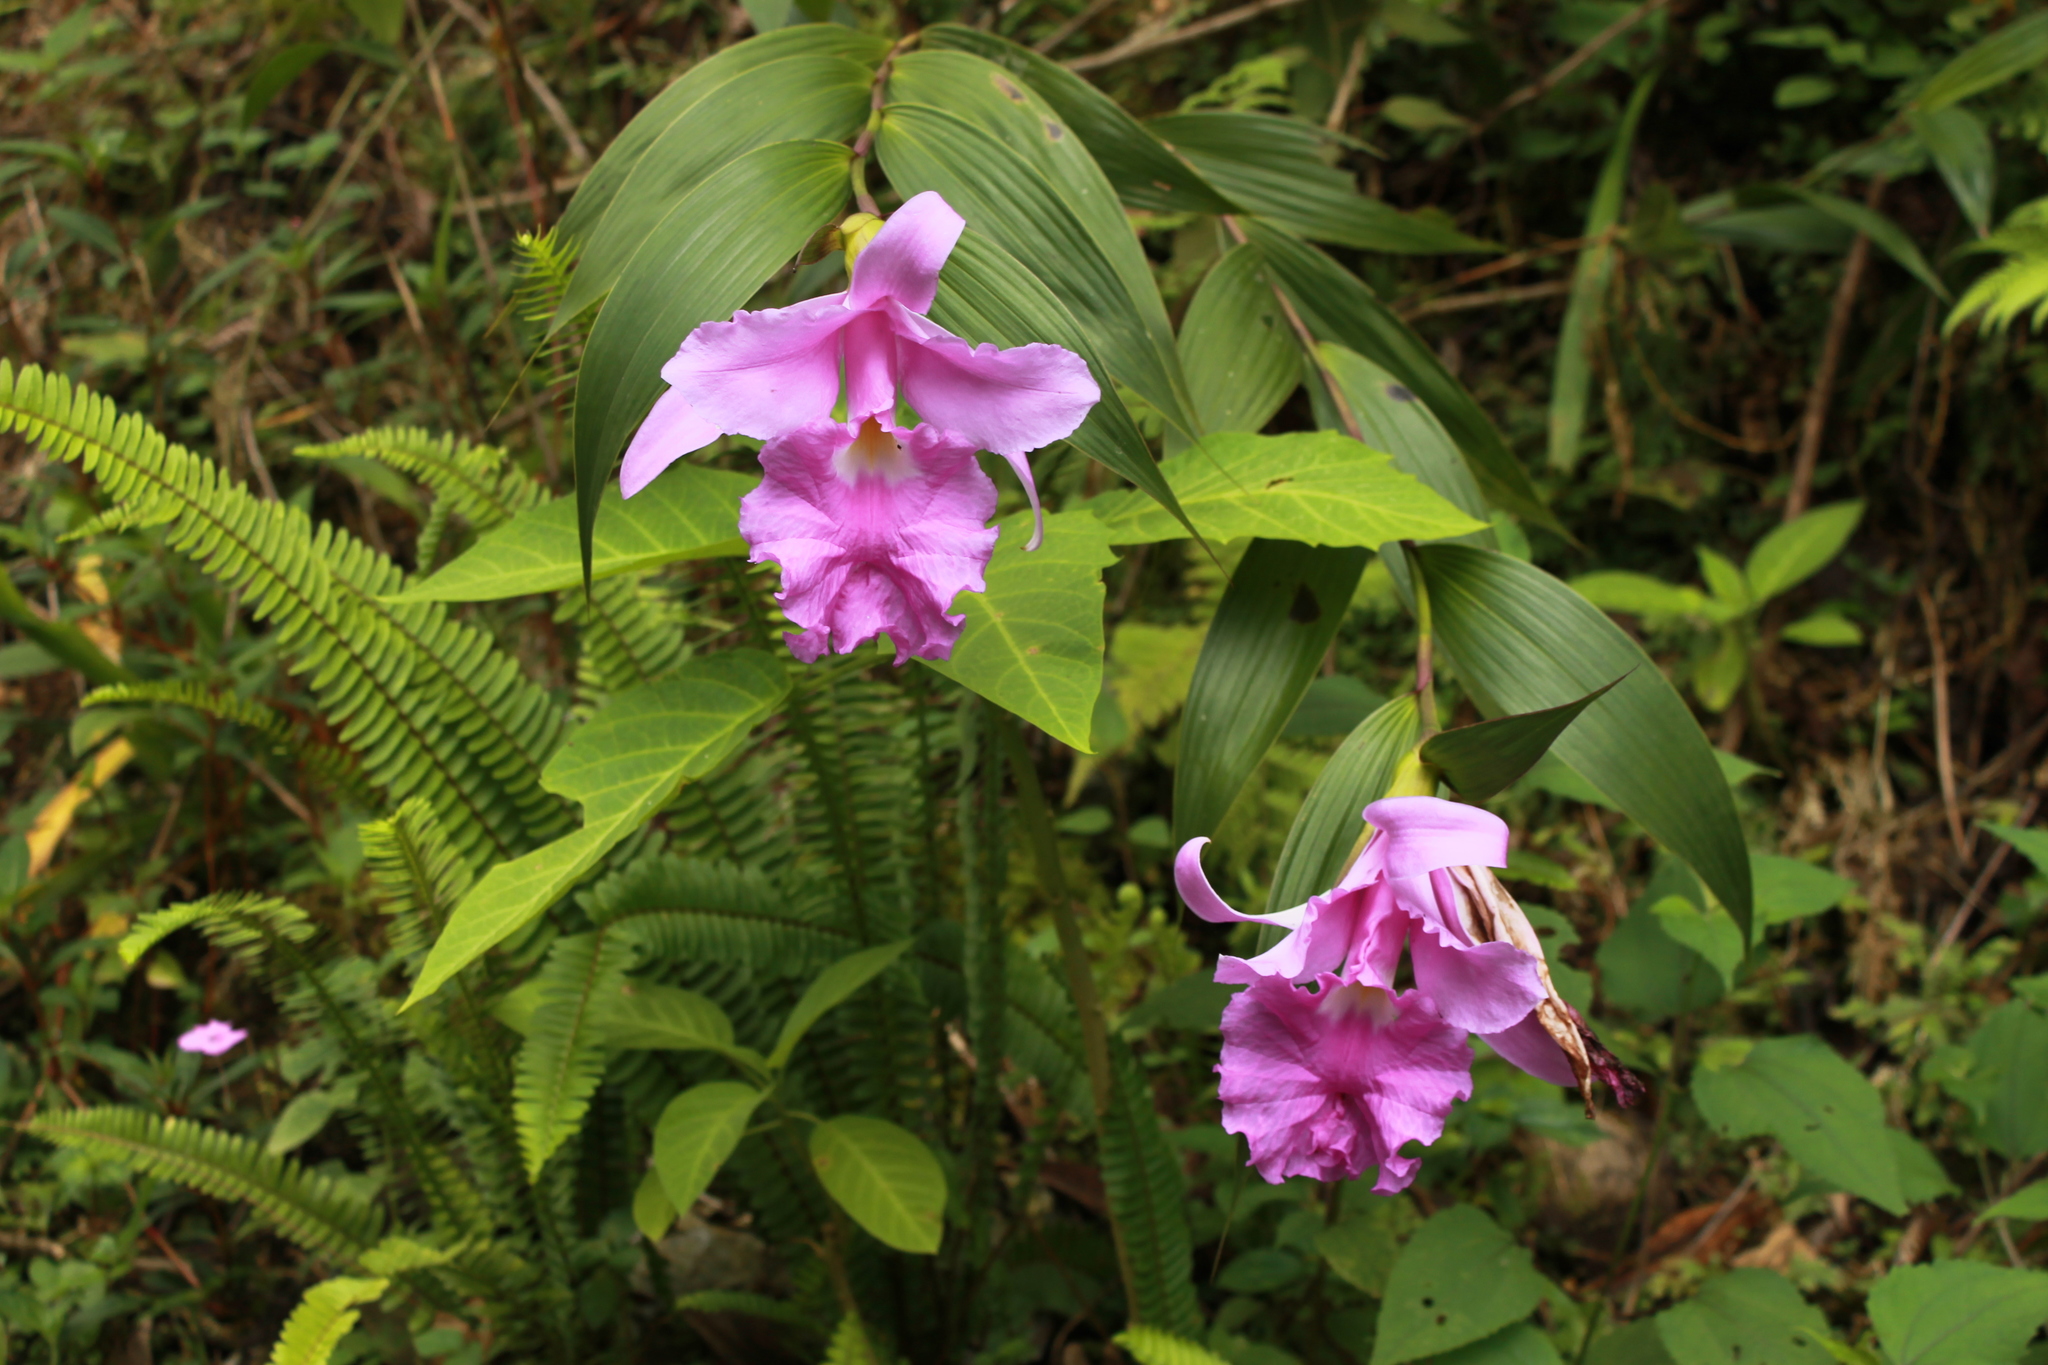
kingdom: Plantae
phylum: Tracheophyta
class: Liliopsida
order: Asparagales
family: Orchidaceae
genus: Sobralia
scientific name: Sobralia macrantha
